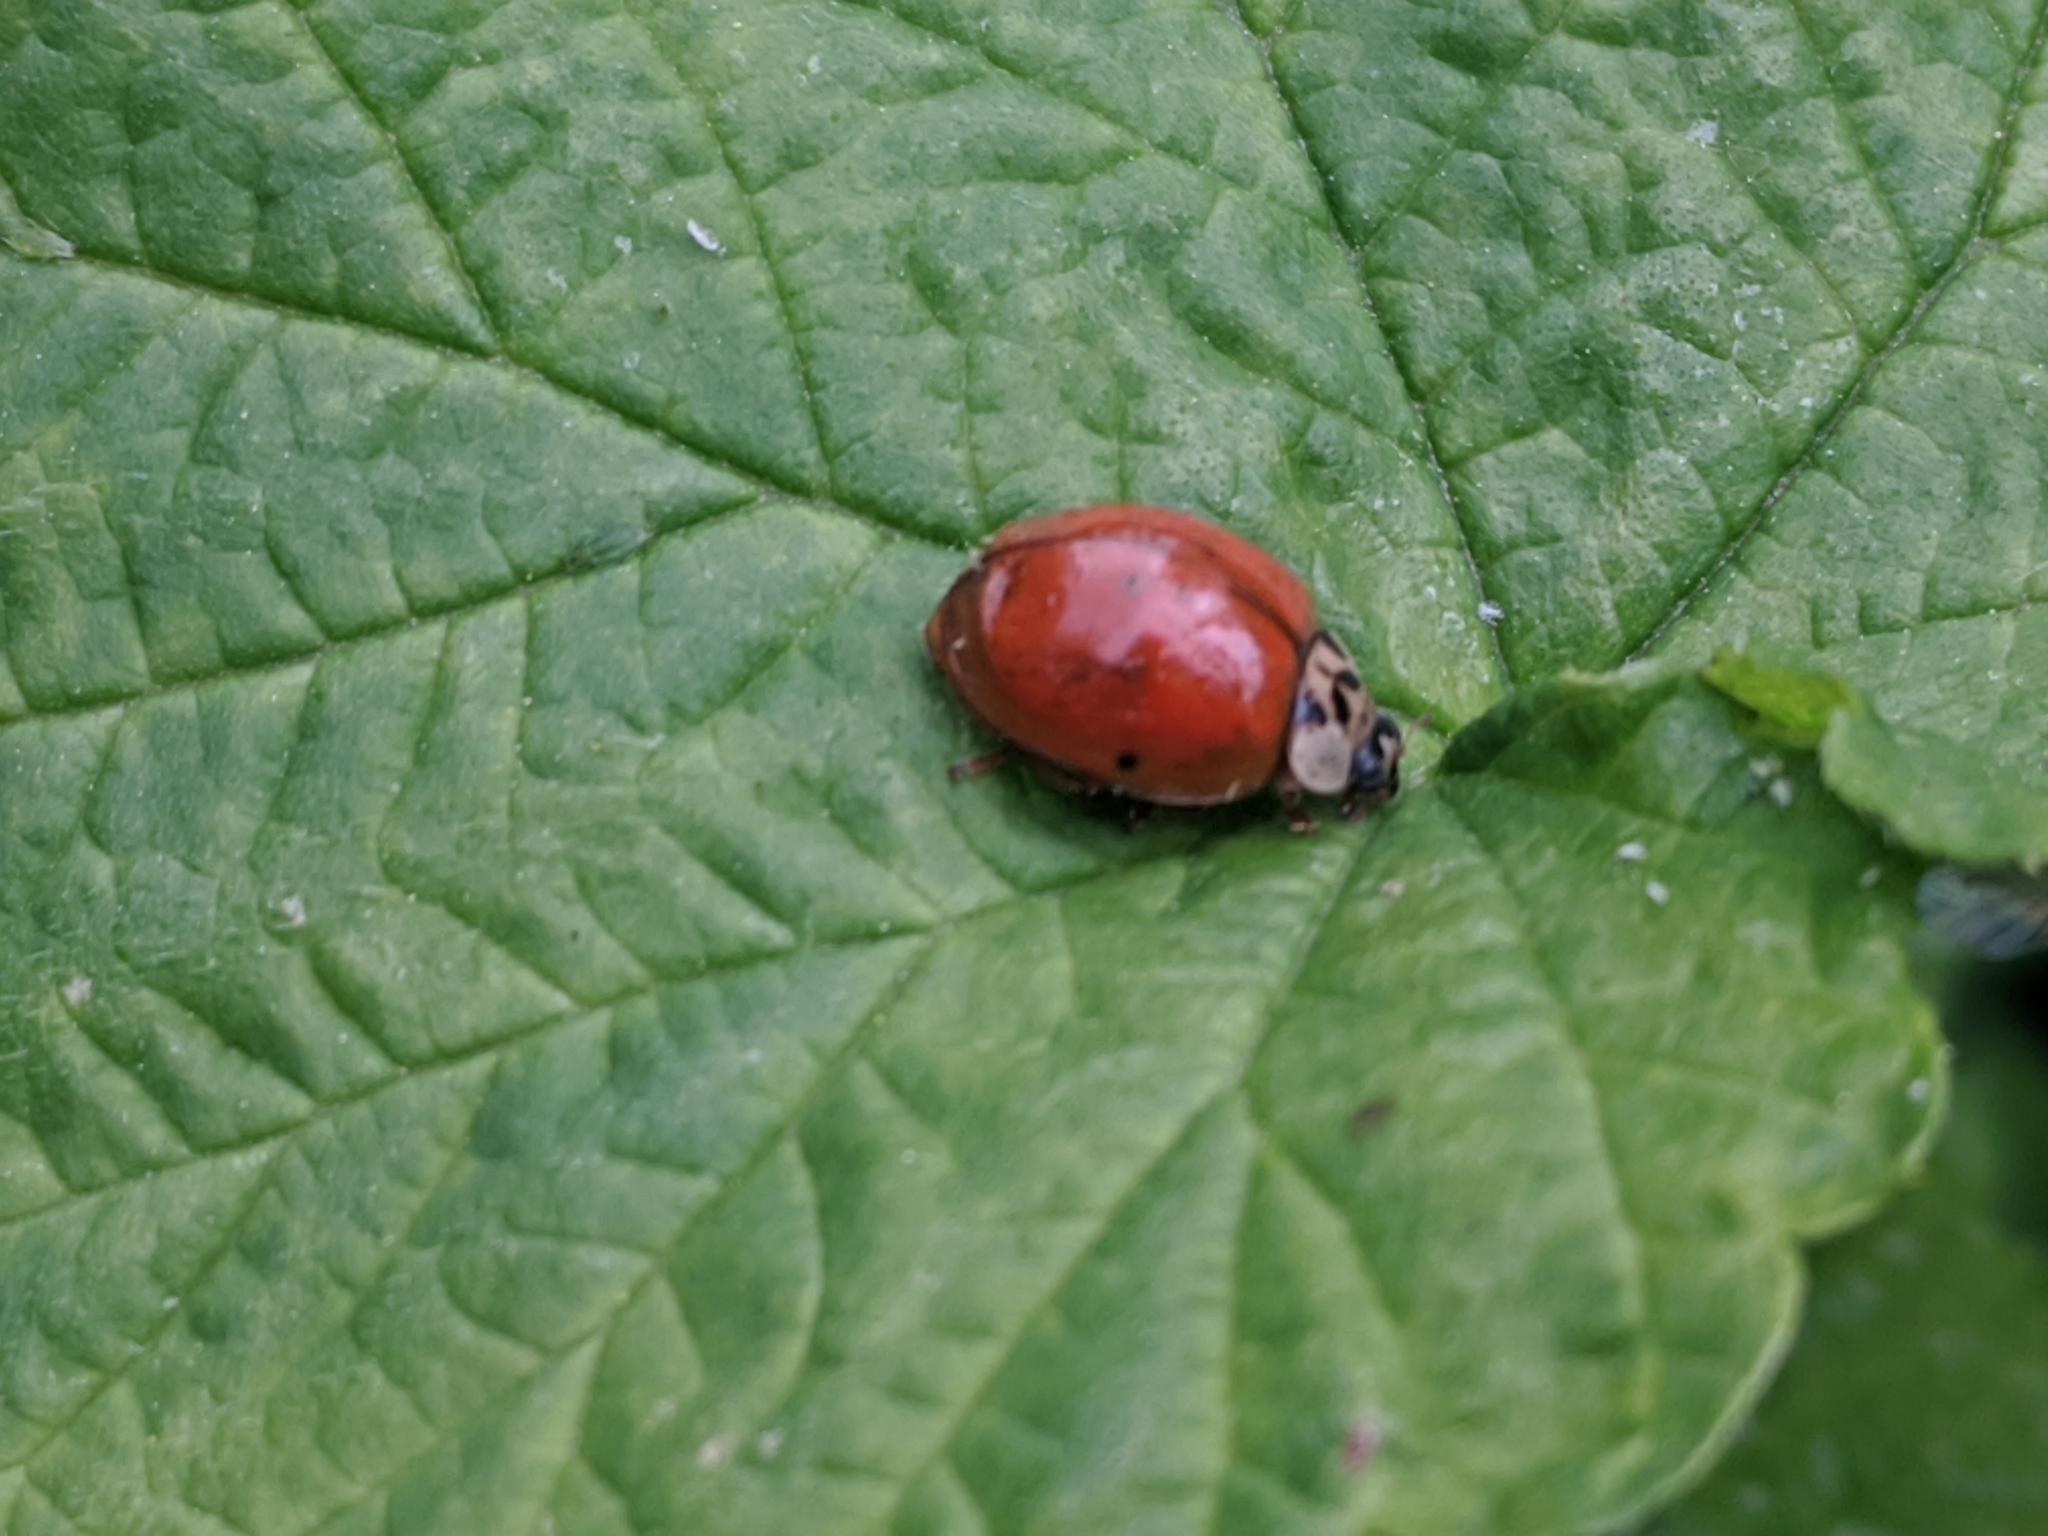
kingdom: Animalia
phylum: Arthropoda
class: Insecta
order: Coleoptera
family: Coccinellidae
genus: Harmonia
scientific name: Harmonia axyridis
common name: Harlequin ladybird
